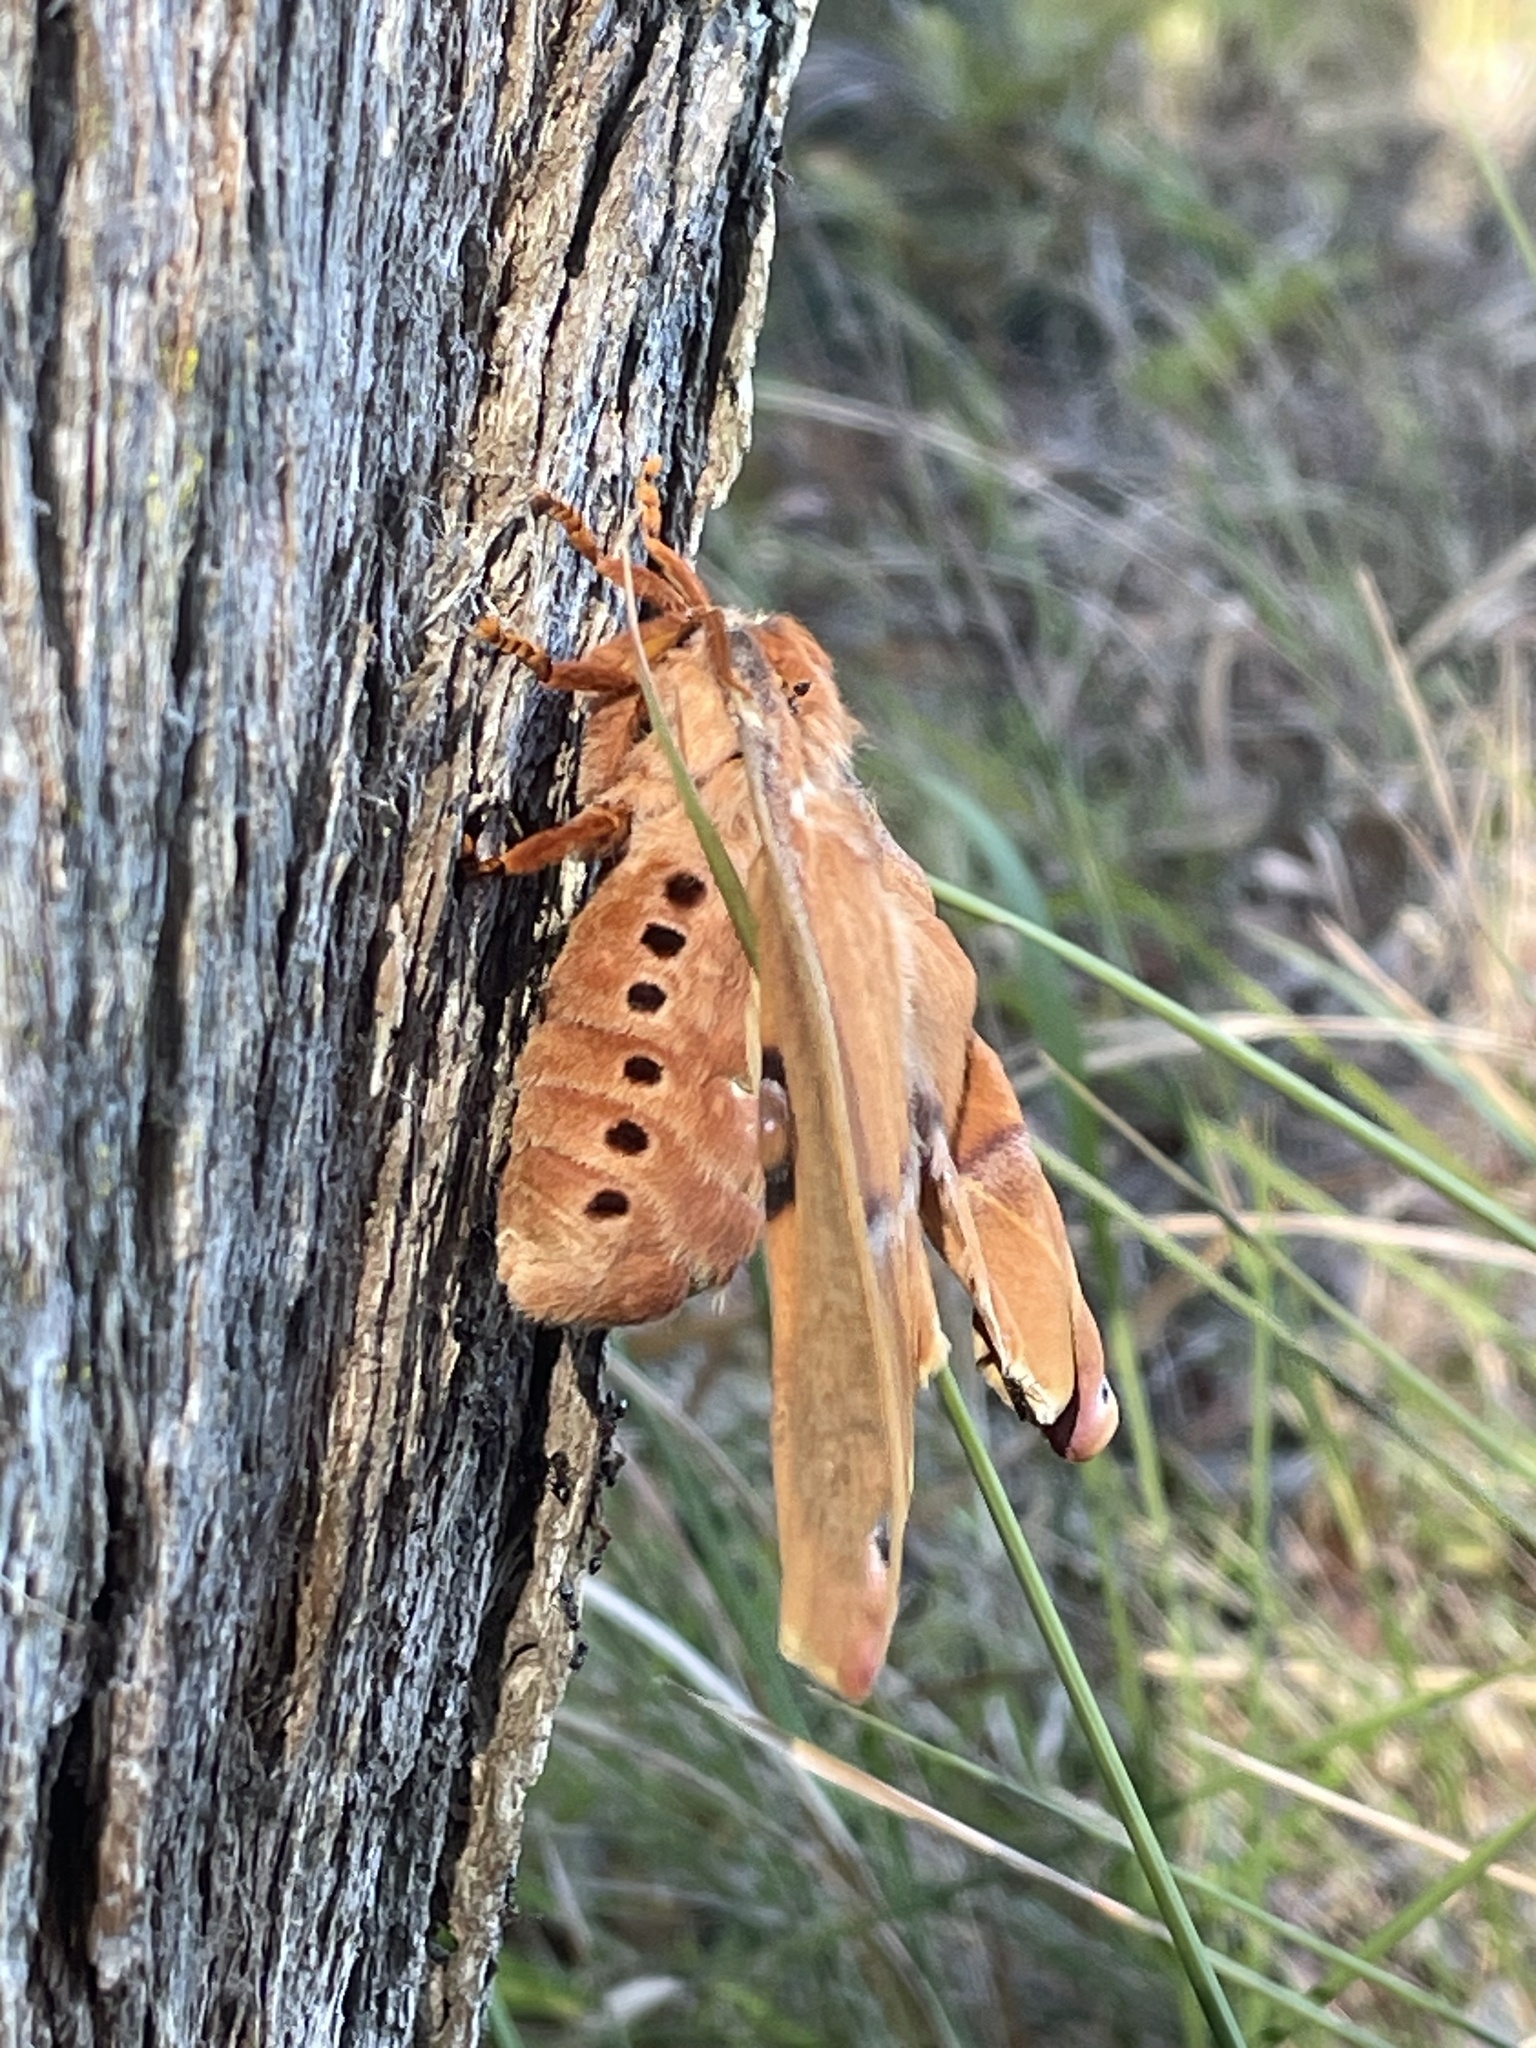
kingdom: Animalia
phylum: Arthropoda
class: Insecta
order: Lepidoptera
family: Saturniidae
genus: Opodiphthera
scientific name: Opodiphthera
